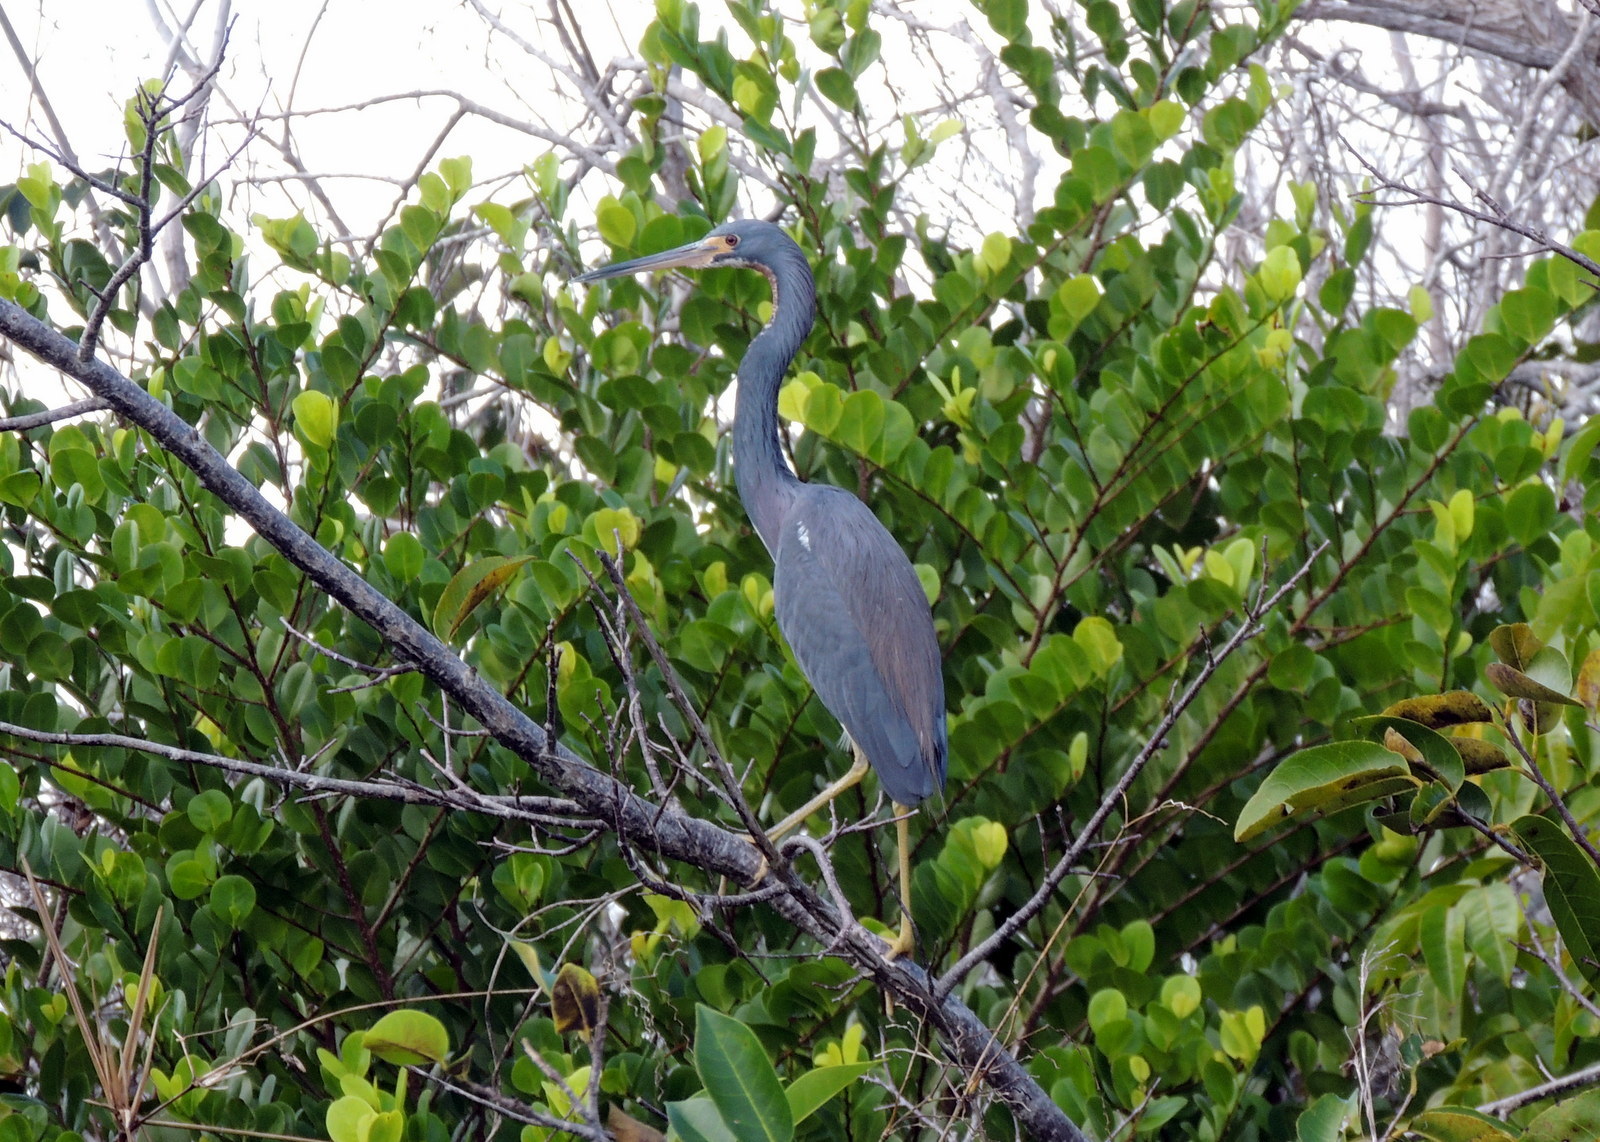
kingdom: Animalia
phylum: Chordata
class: Aves
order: Pelecaniformes
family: Ardeidae
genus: Egretta
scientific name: Egretta tricolor
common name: Tricolored heron
